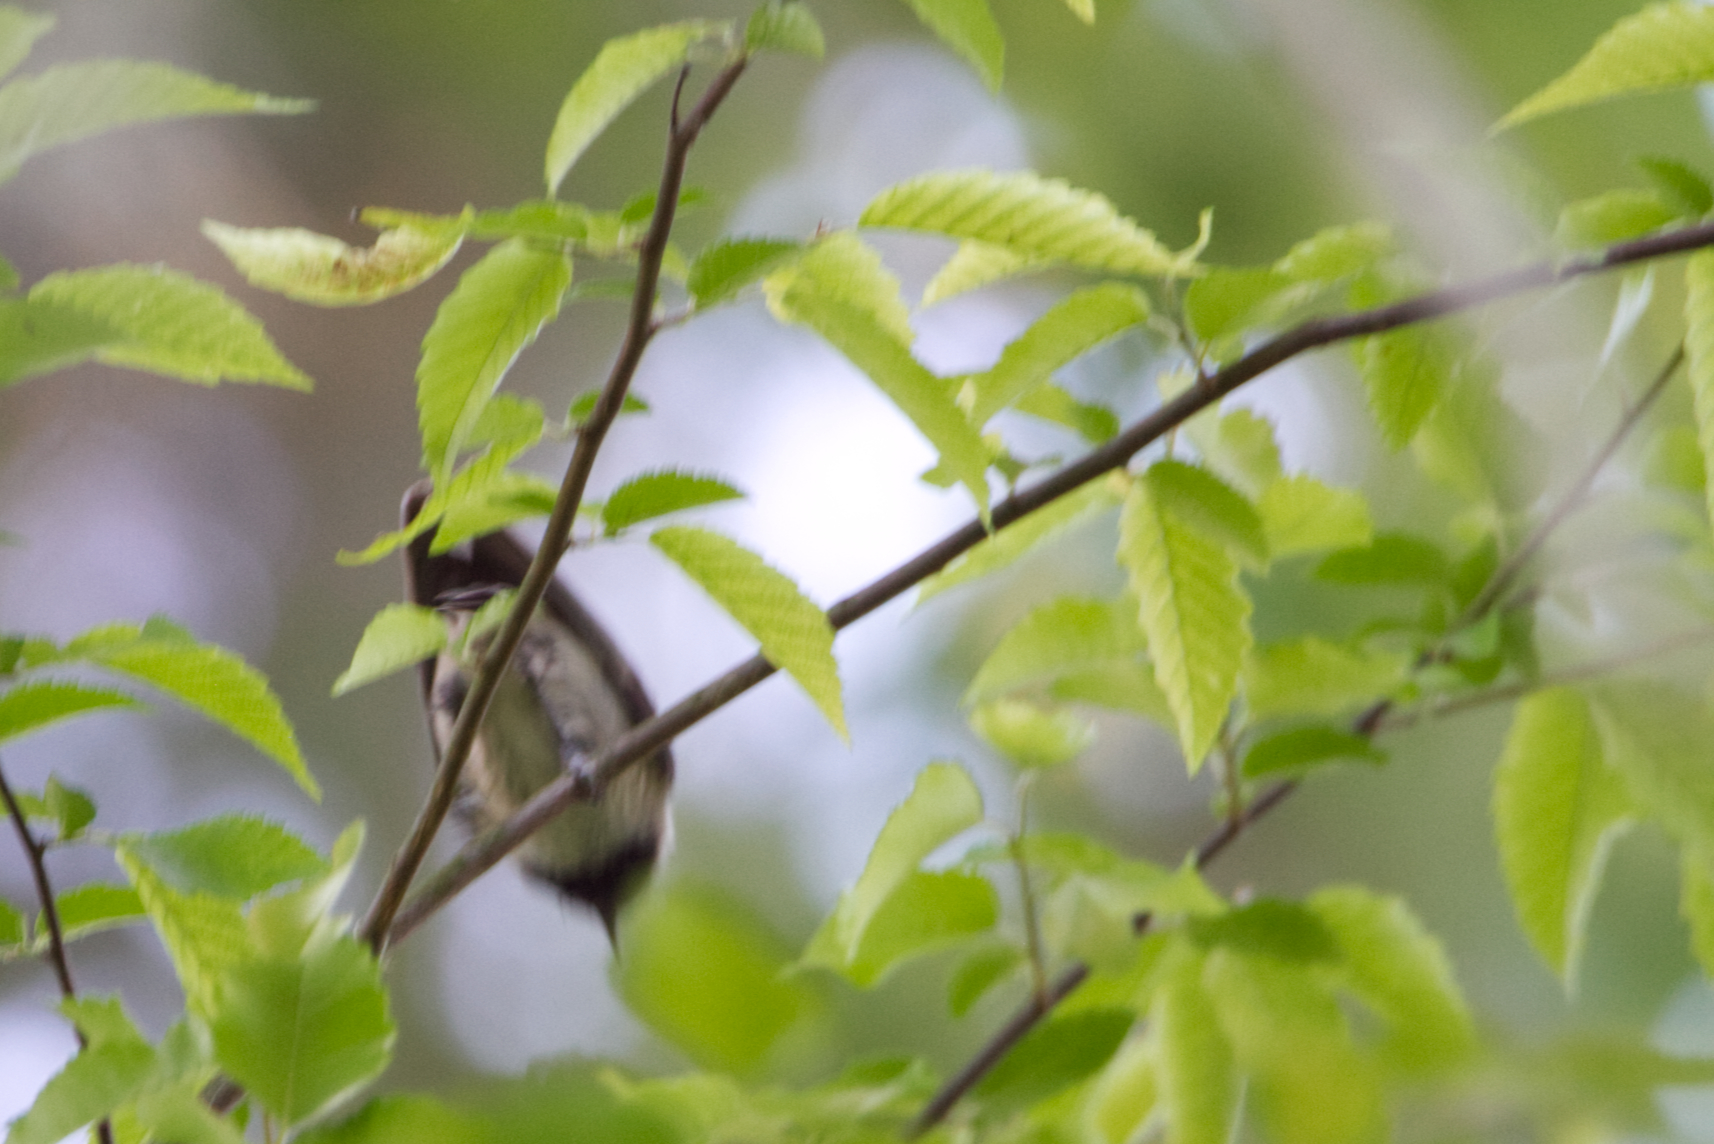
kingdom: Animalia
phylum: Chordata
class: Aves
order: Passeriformes
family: Paridae
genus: Poecile
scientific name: Poecile carolinensis
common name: Carolina chickadee
